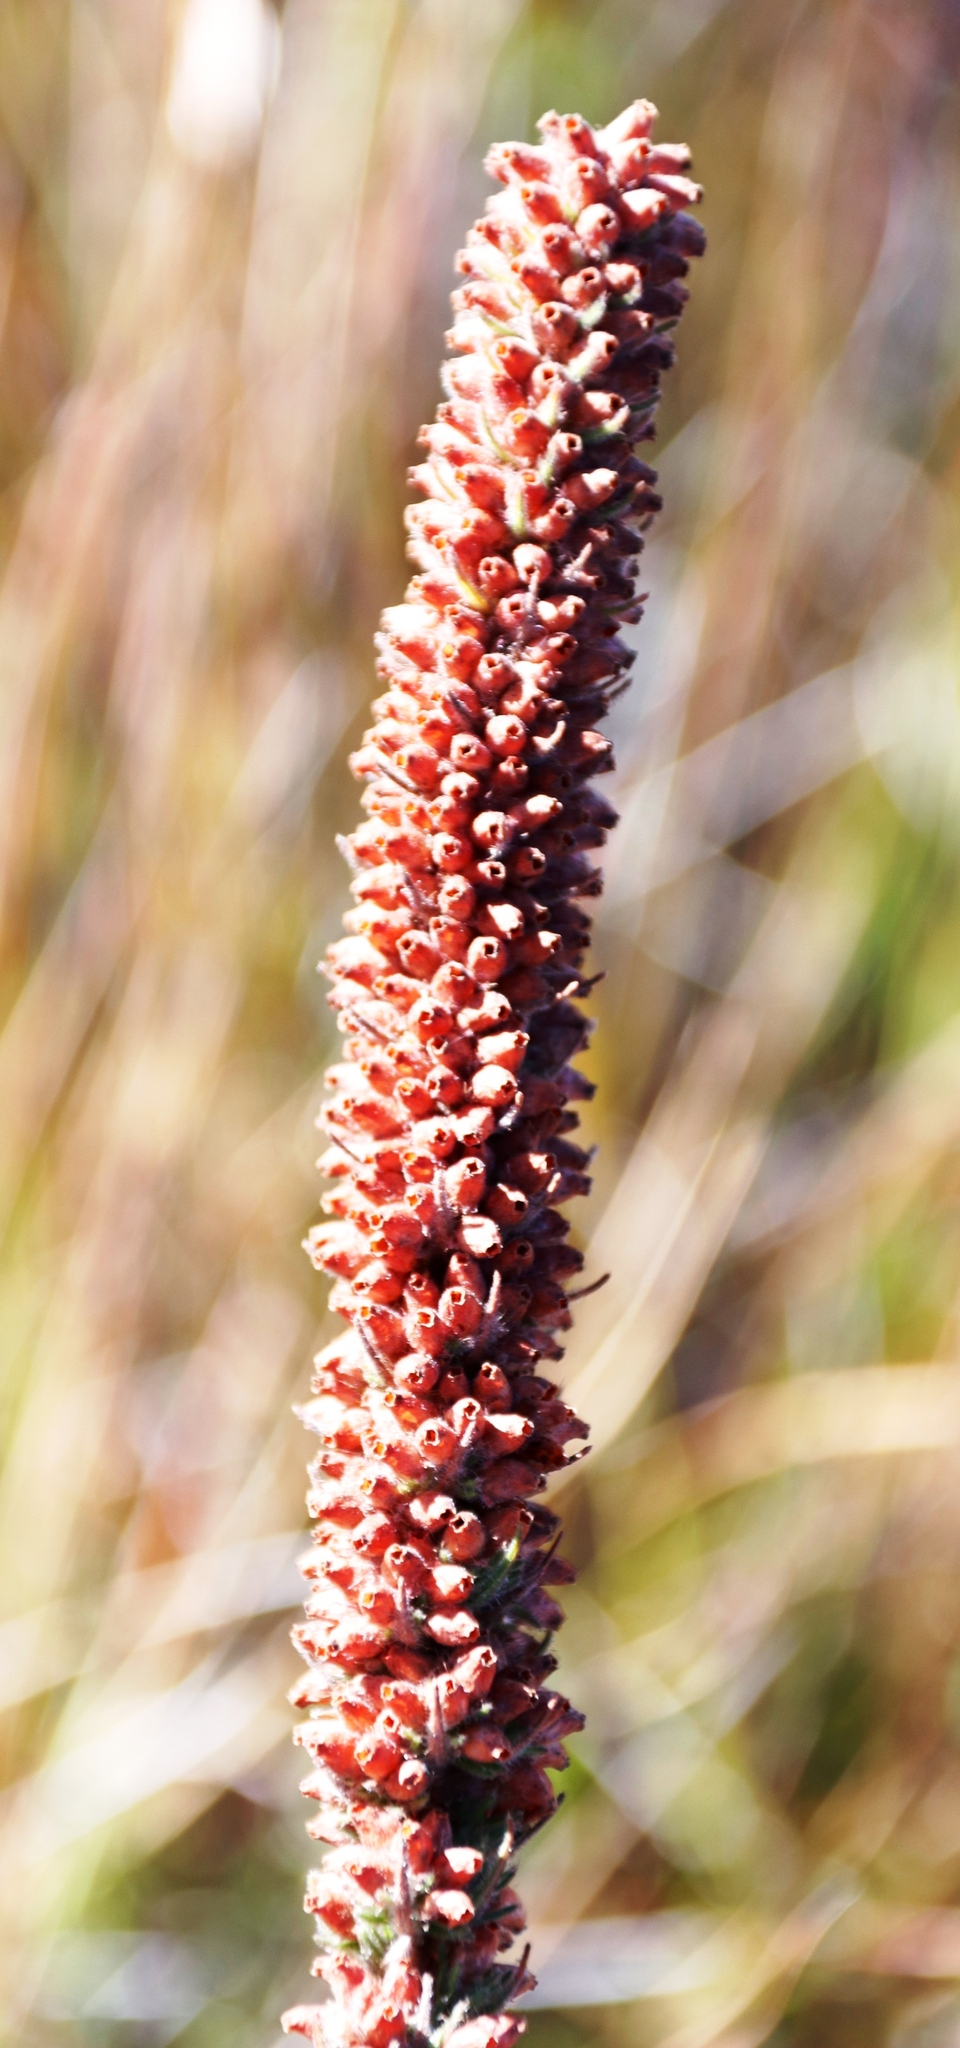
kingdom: Plantae
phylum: Tracheophyta
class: Magnoliopsida
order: Ericales
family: Ericaceae
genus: Erica
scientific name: Erica alopecurus
